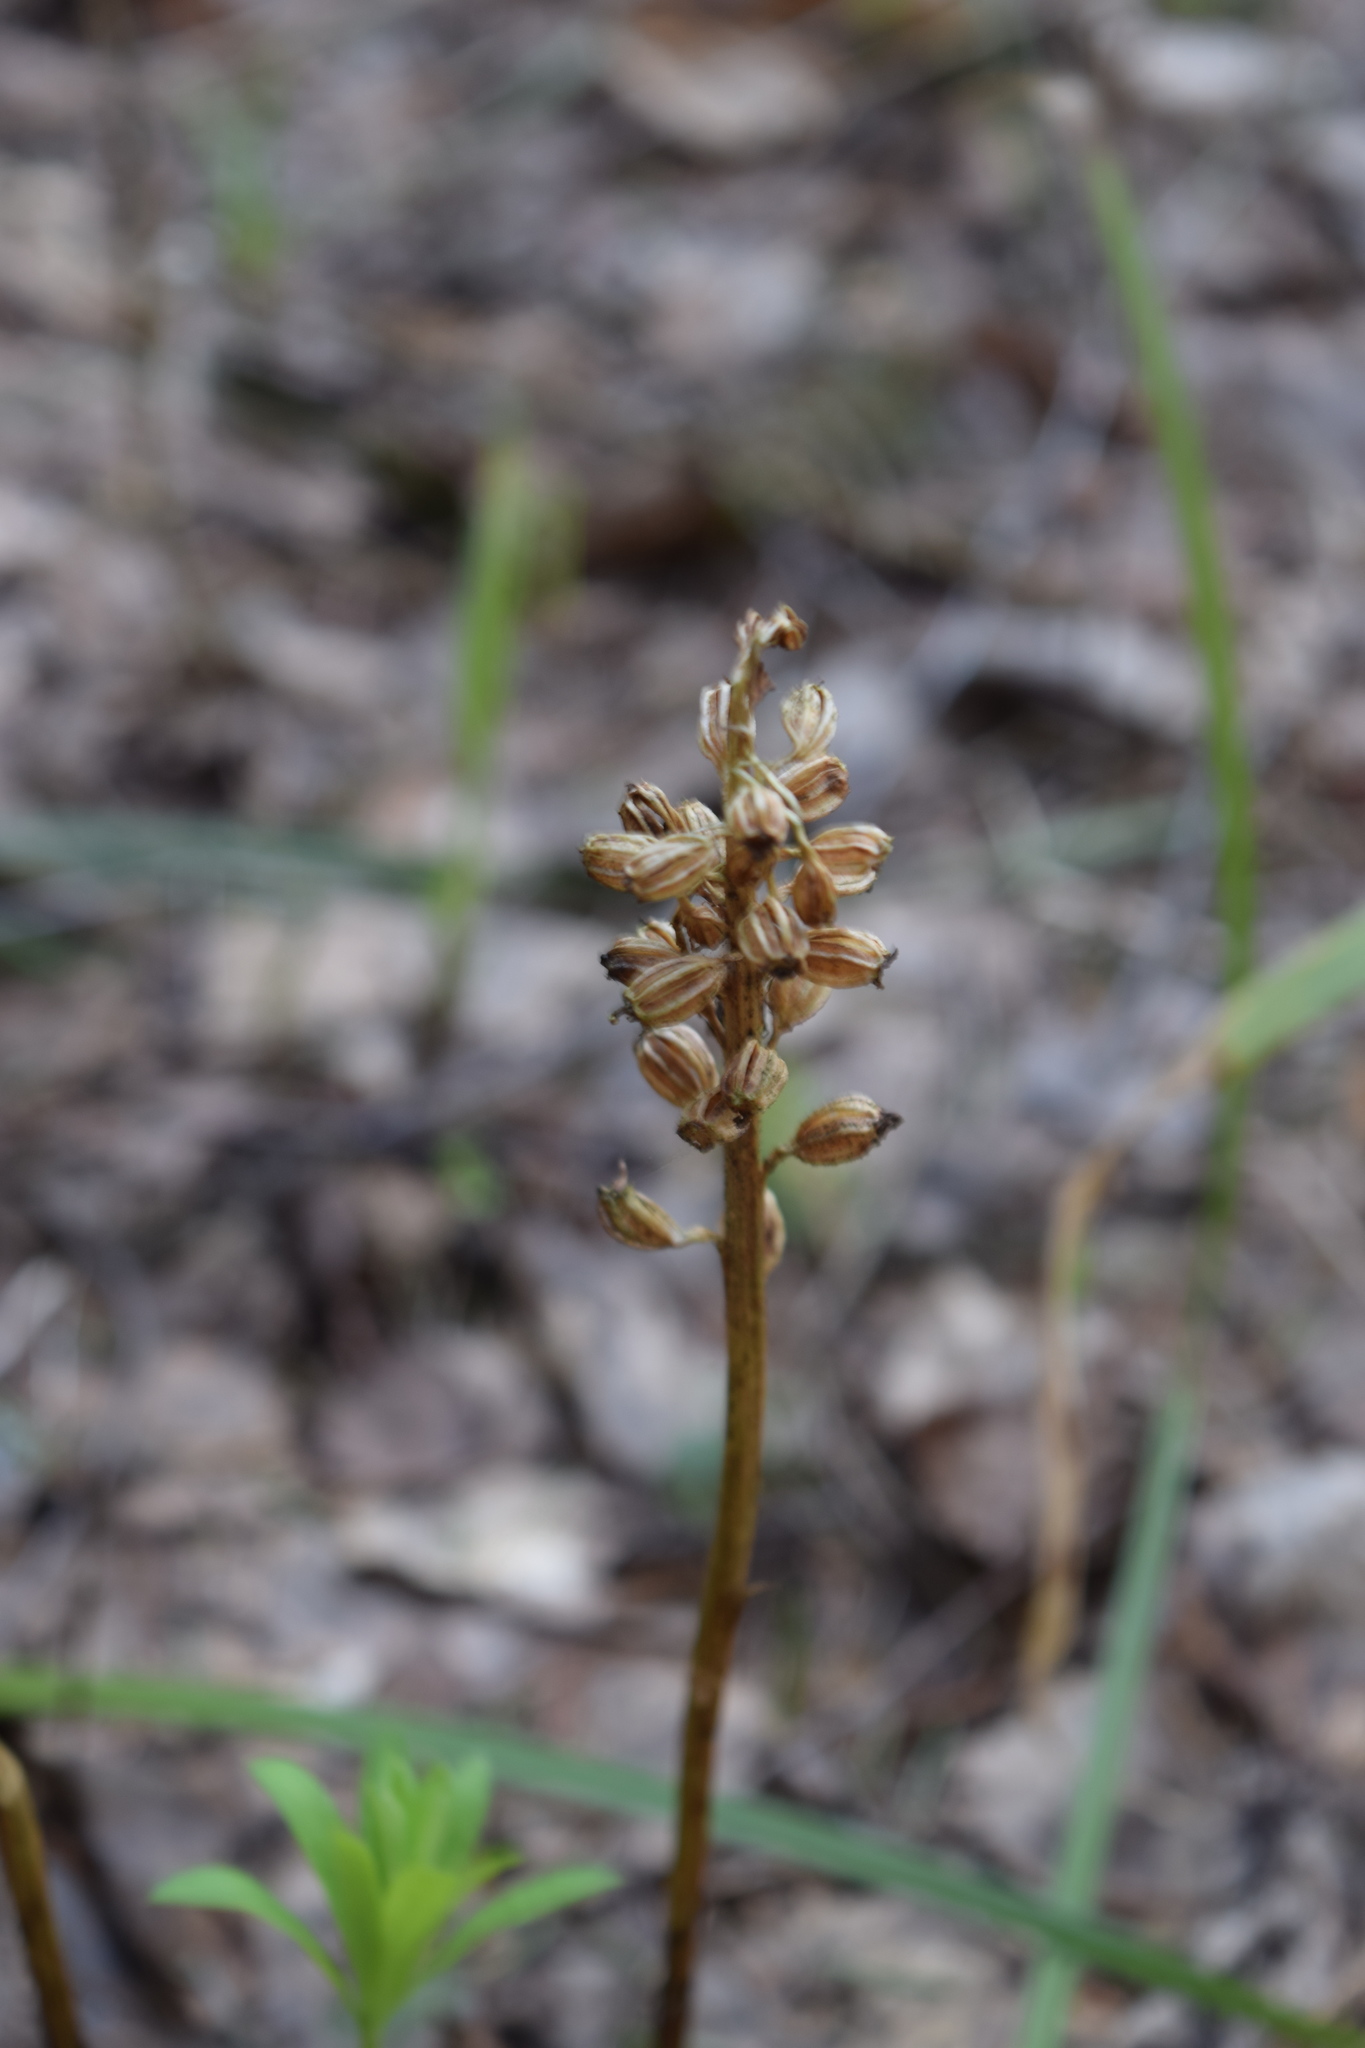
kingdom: Plantae
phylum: Tracheophyta
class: Liliopsida
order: Asparagales
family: Orchidaceae
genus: Neottia
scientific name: Neottia nidus-avis
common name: Bird's-nest orchid
